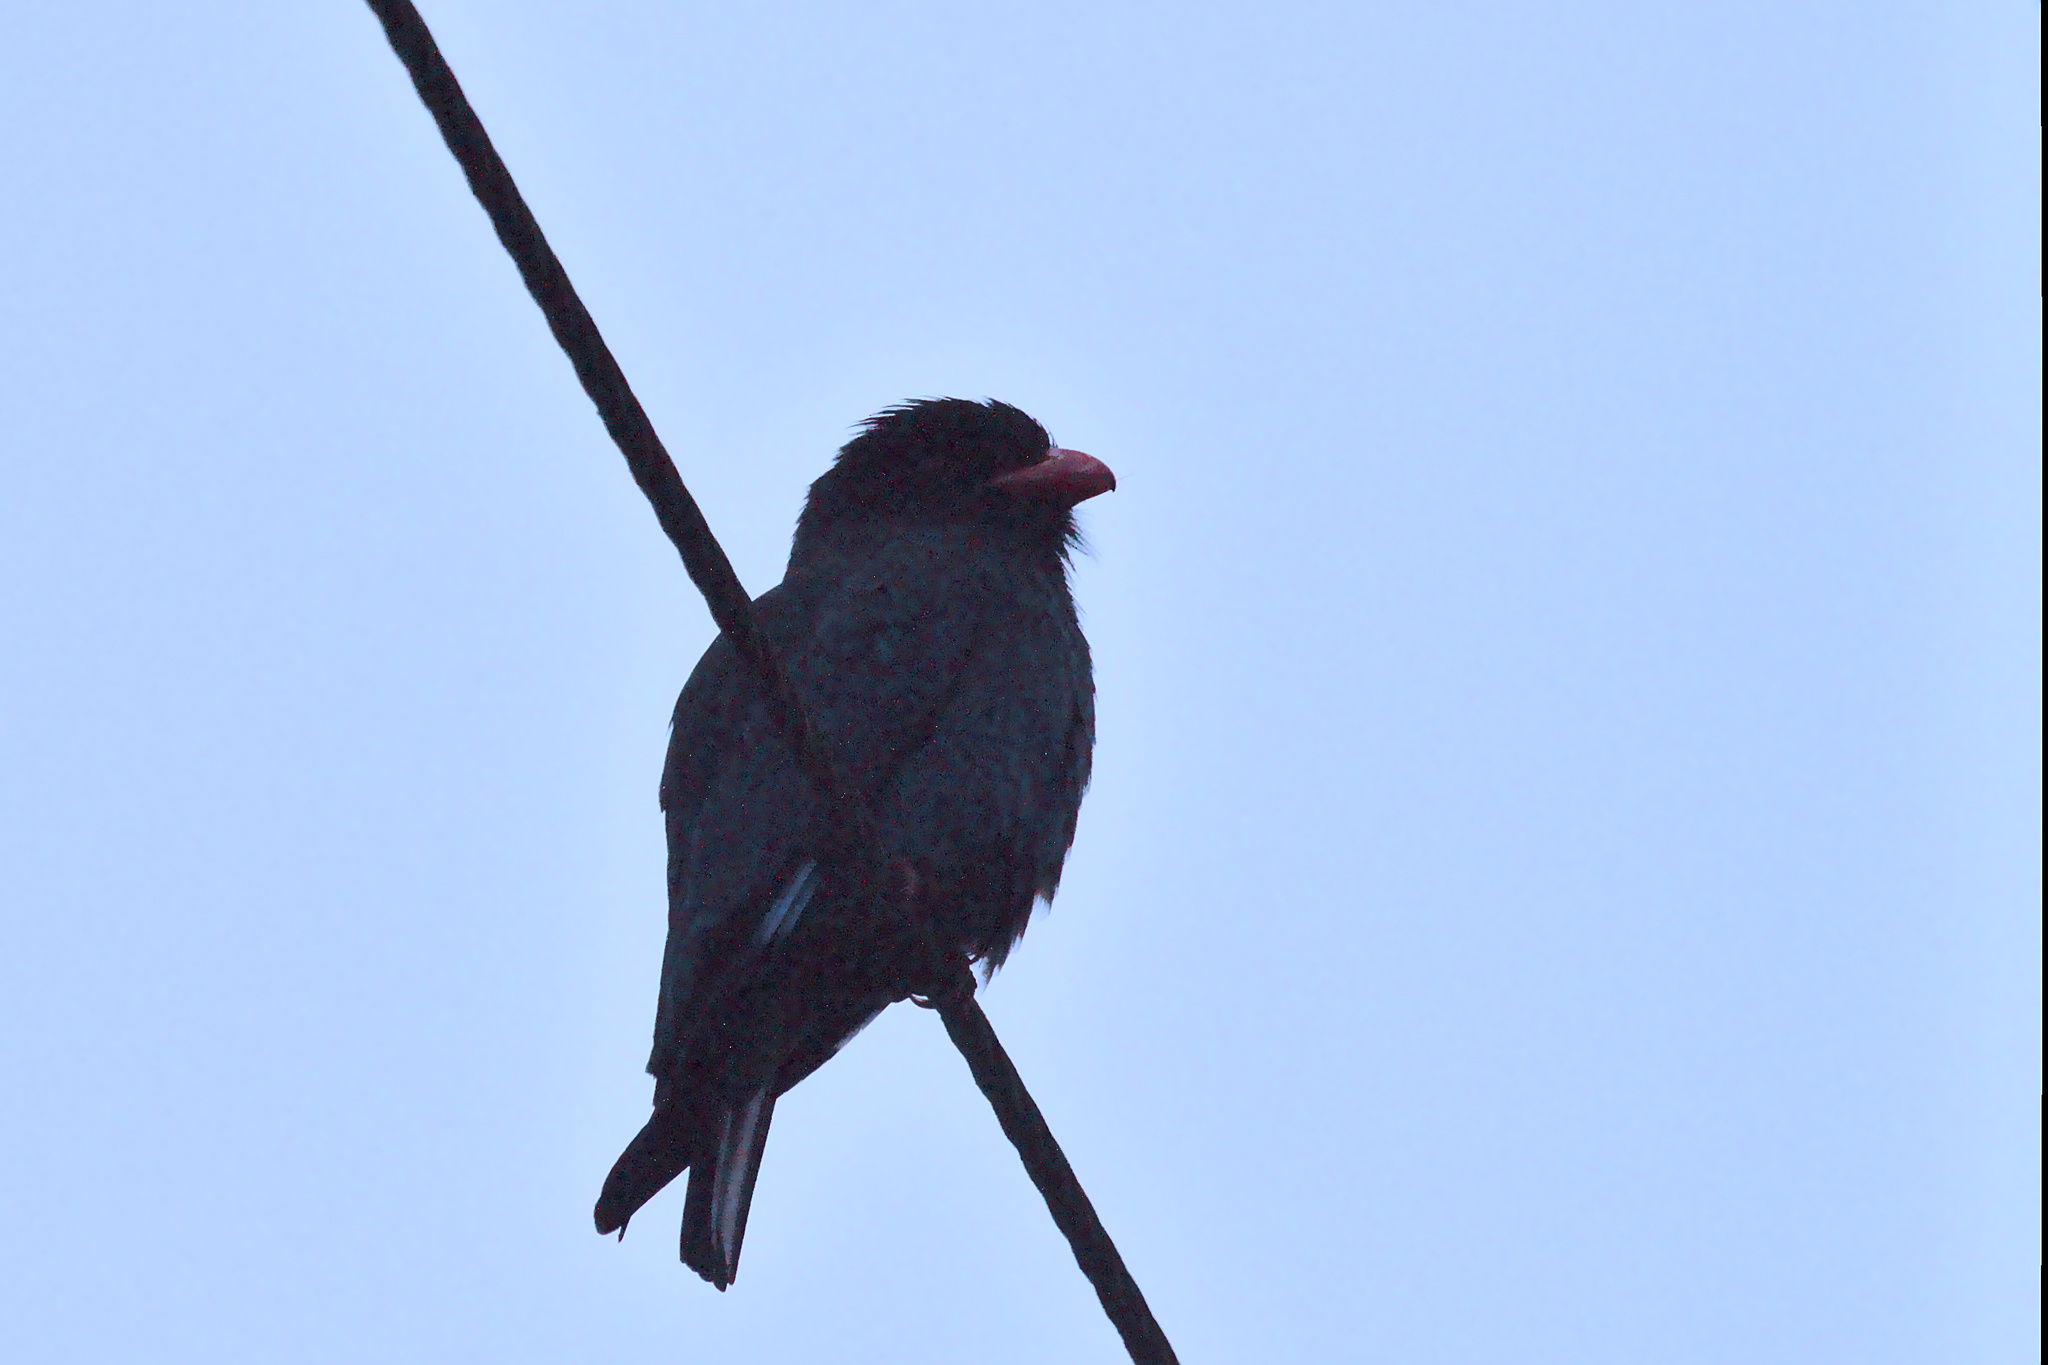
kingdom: Animalia
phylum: Chordata
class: Aves
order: Coraciiformes
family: Coraciidae
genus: Eurystomus
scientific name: Eurystomus orientalis
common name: Oriental dollarbird
